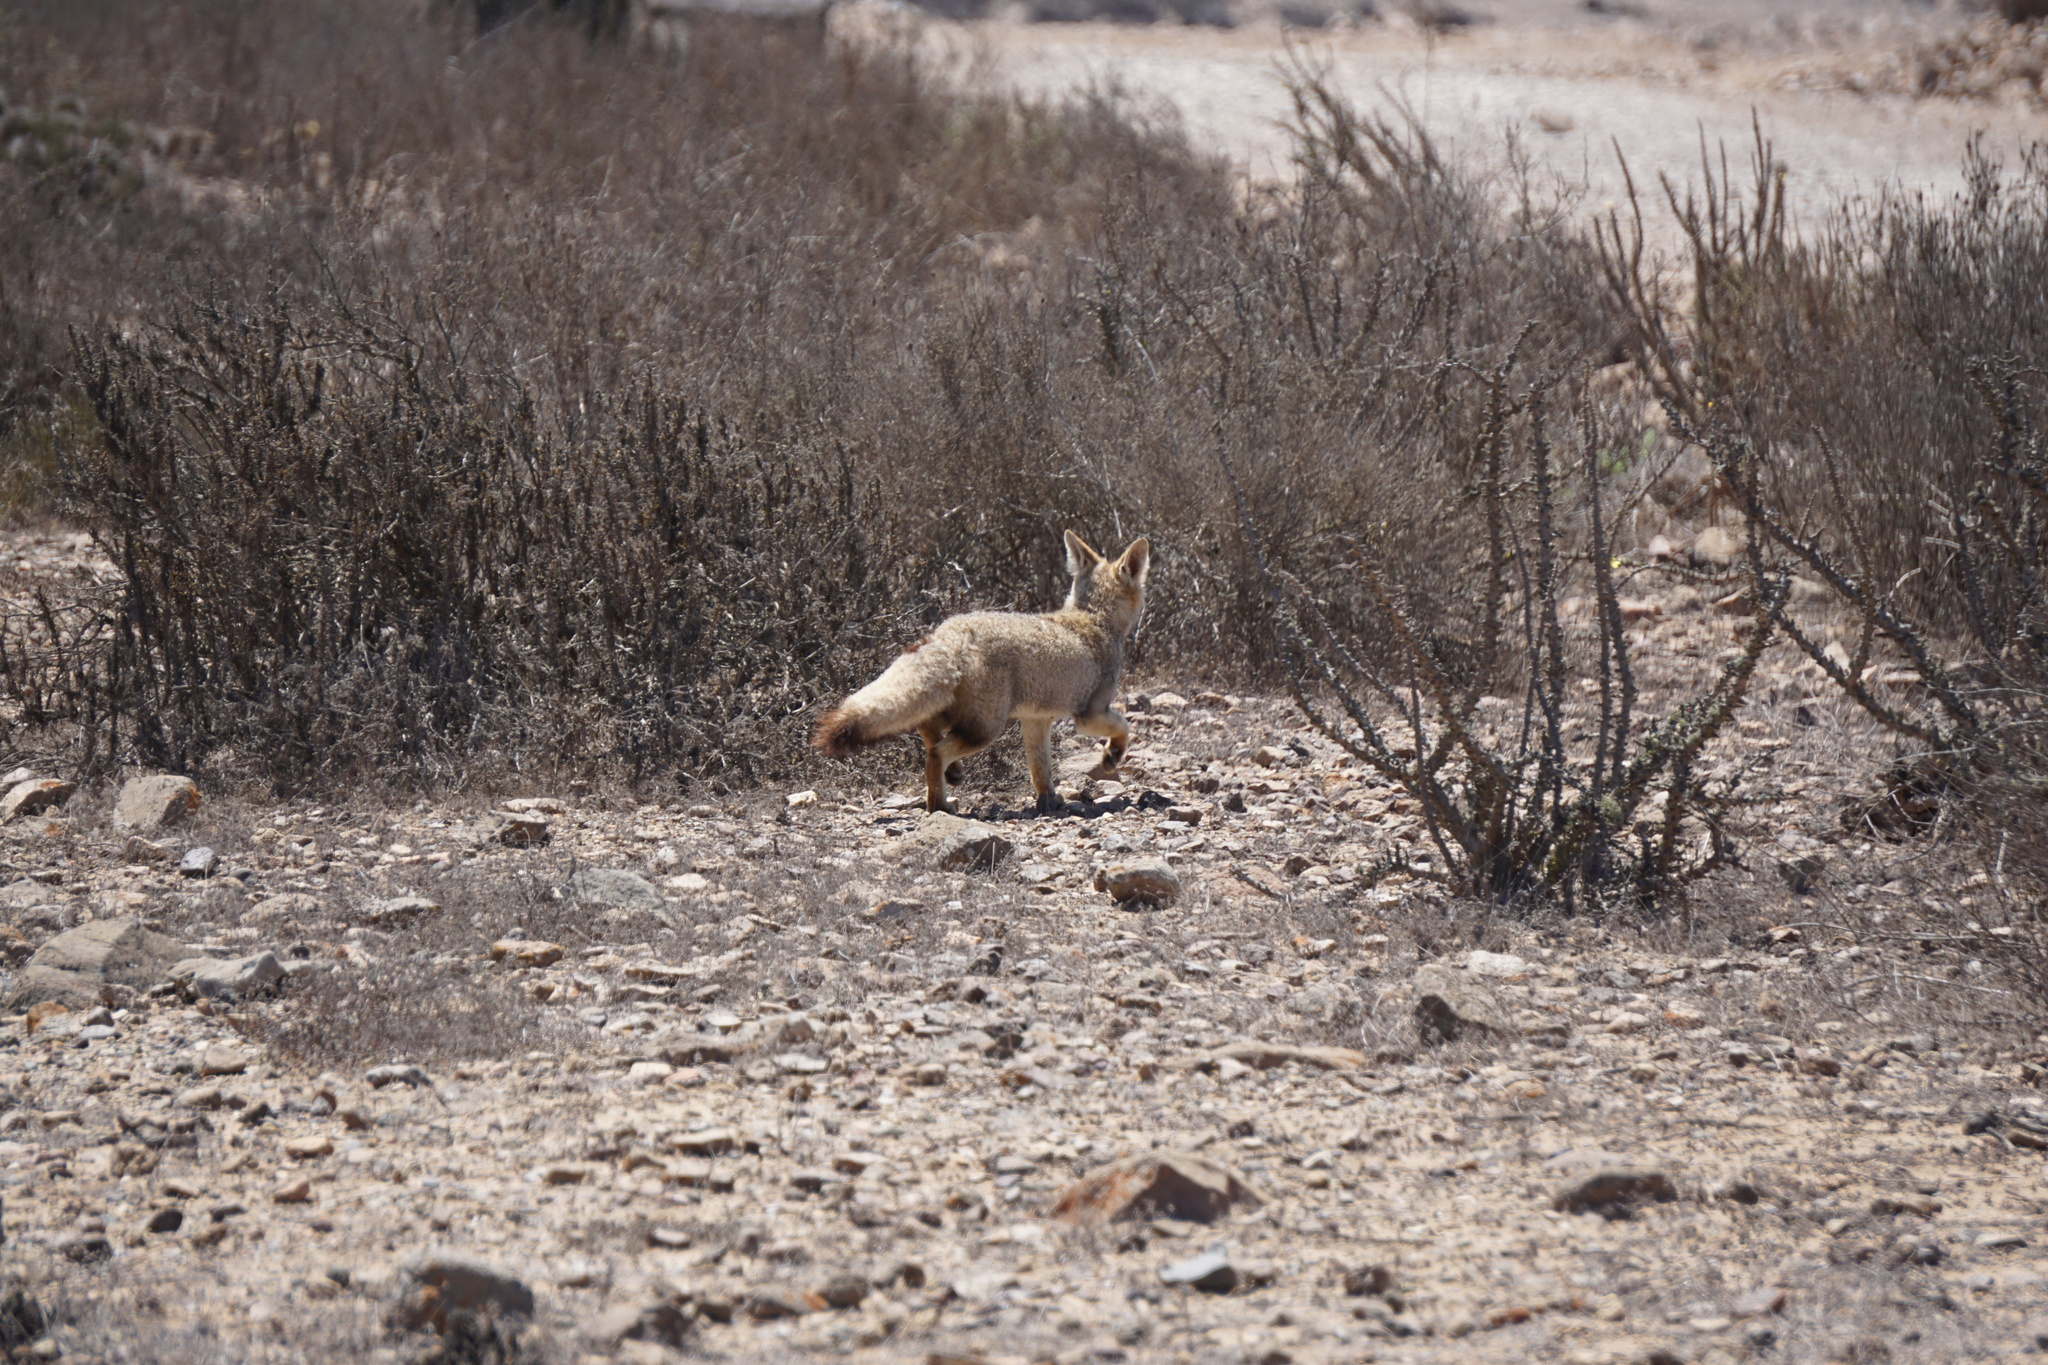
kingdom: Animalia
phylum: Chordata
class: Mammalia
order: Carnivora
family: Canidae
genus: Lycalopex
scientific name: Lycalopex gymnocercus
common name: Pampas fox
